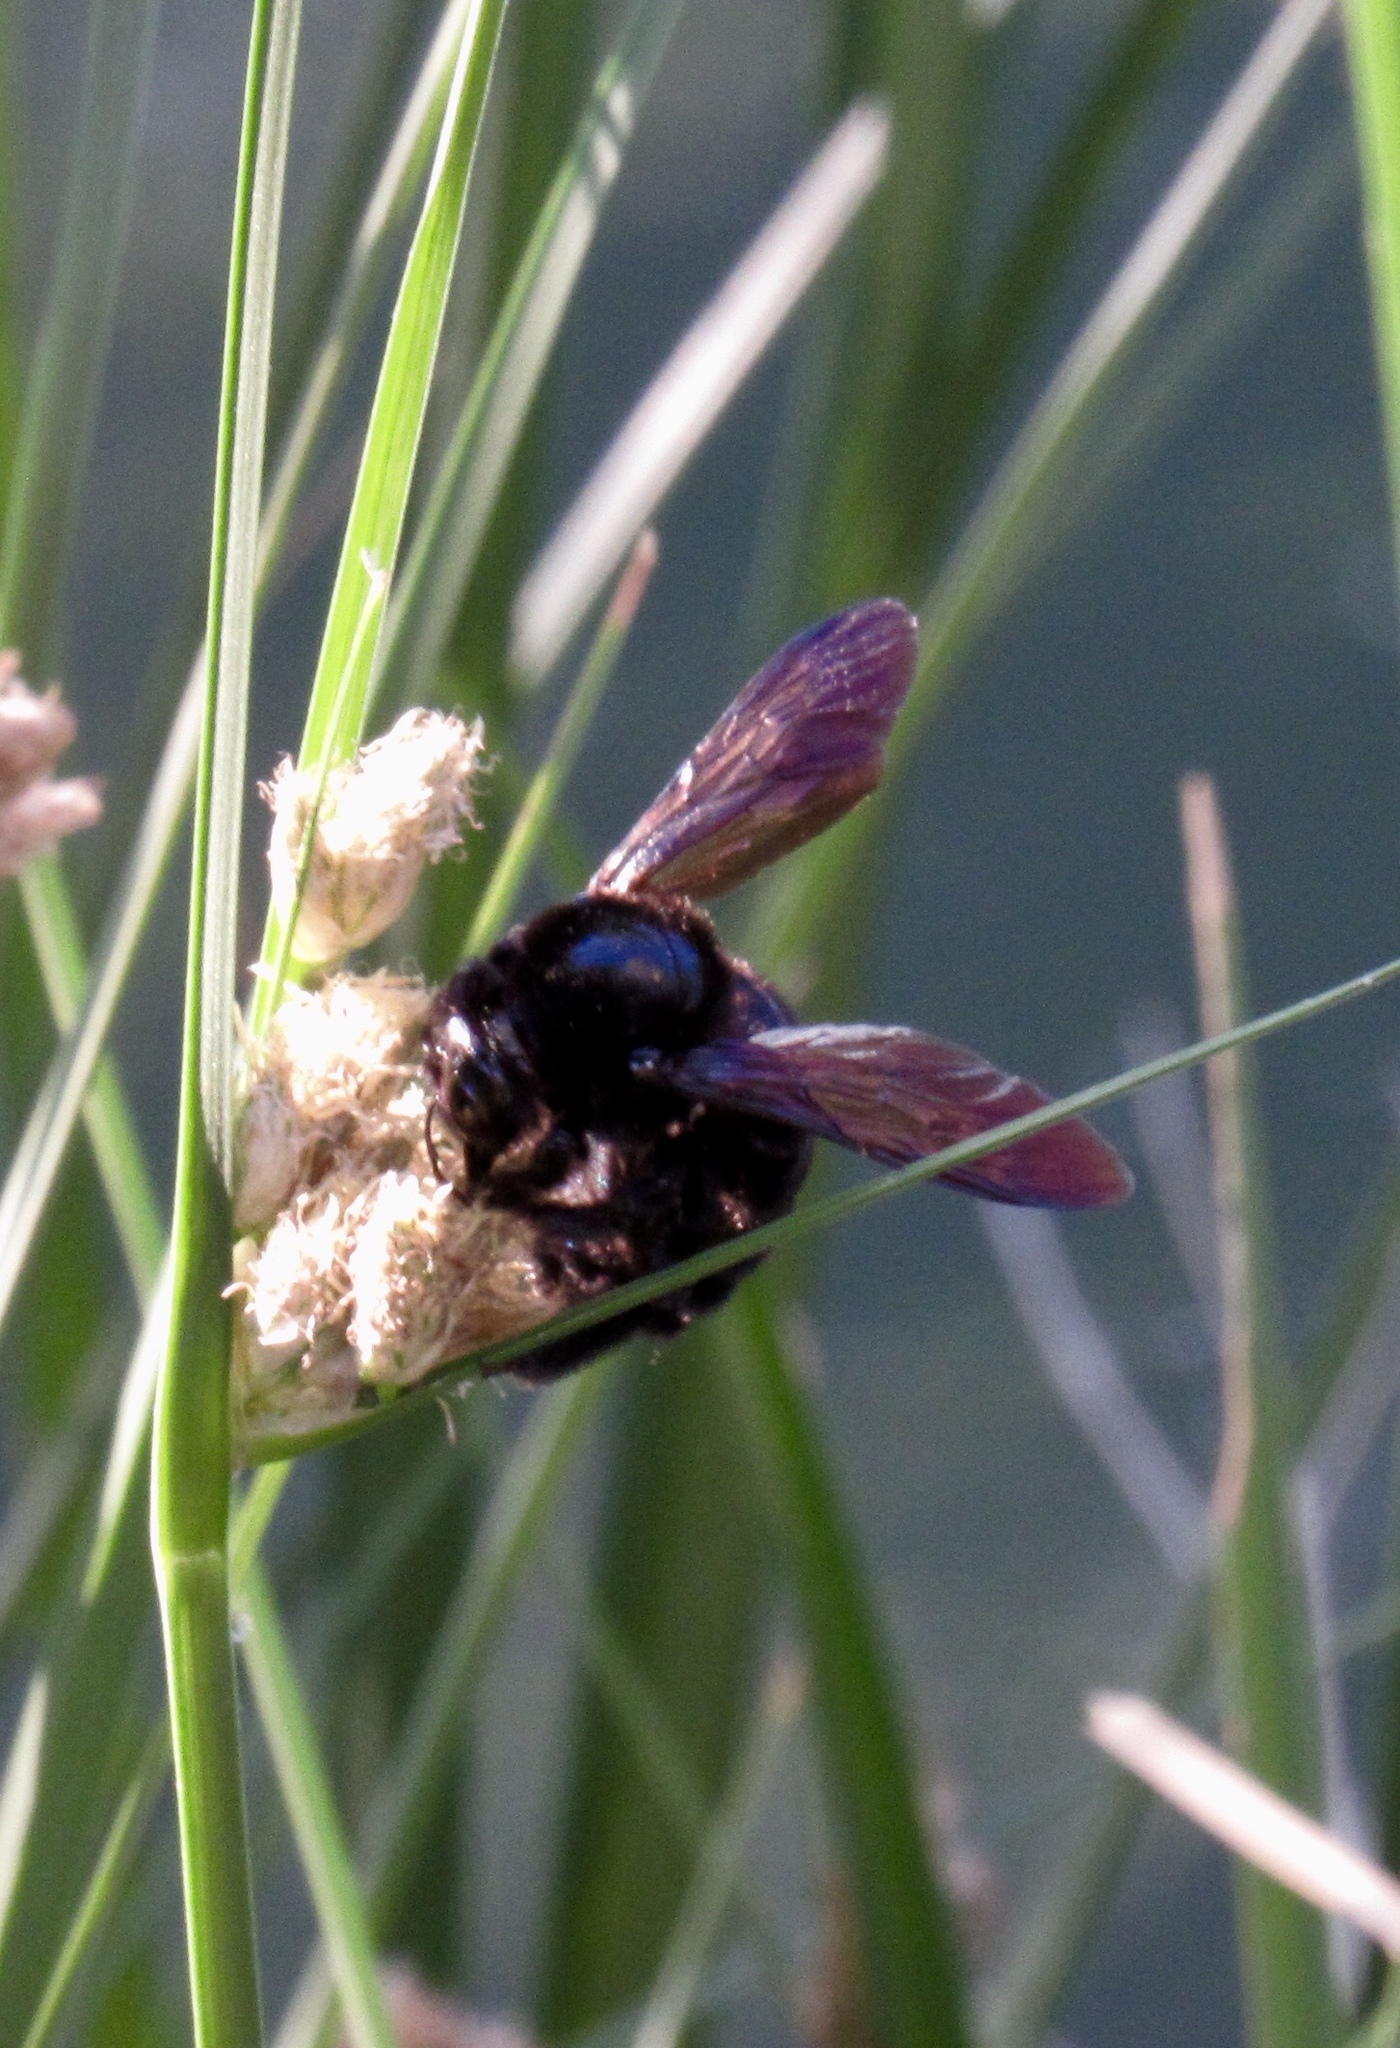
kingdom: Animalia
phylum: Arthropoda
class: Insecta
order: Hymenoptera
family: Apidae
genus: Xylocopa
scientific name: Xylocopa sonorina
